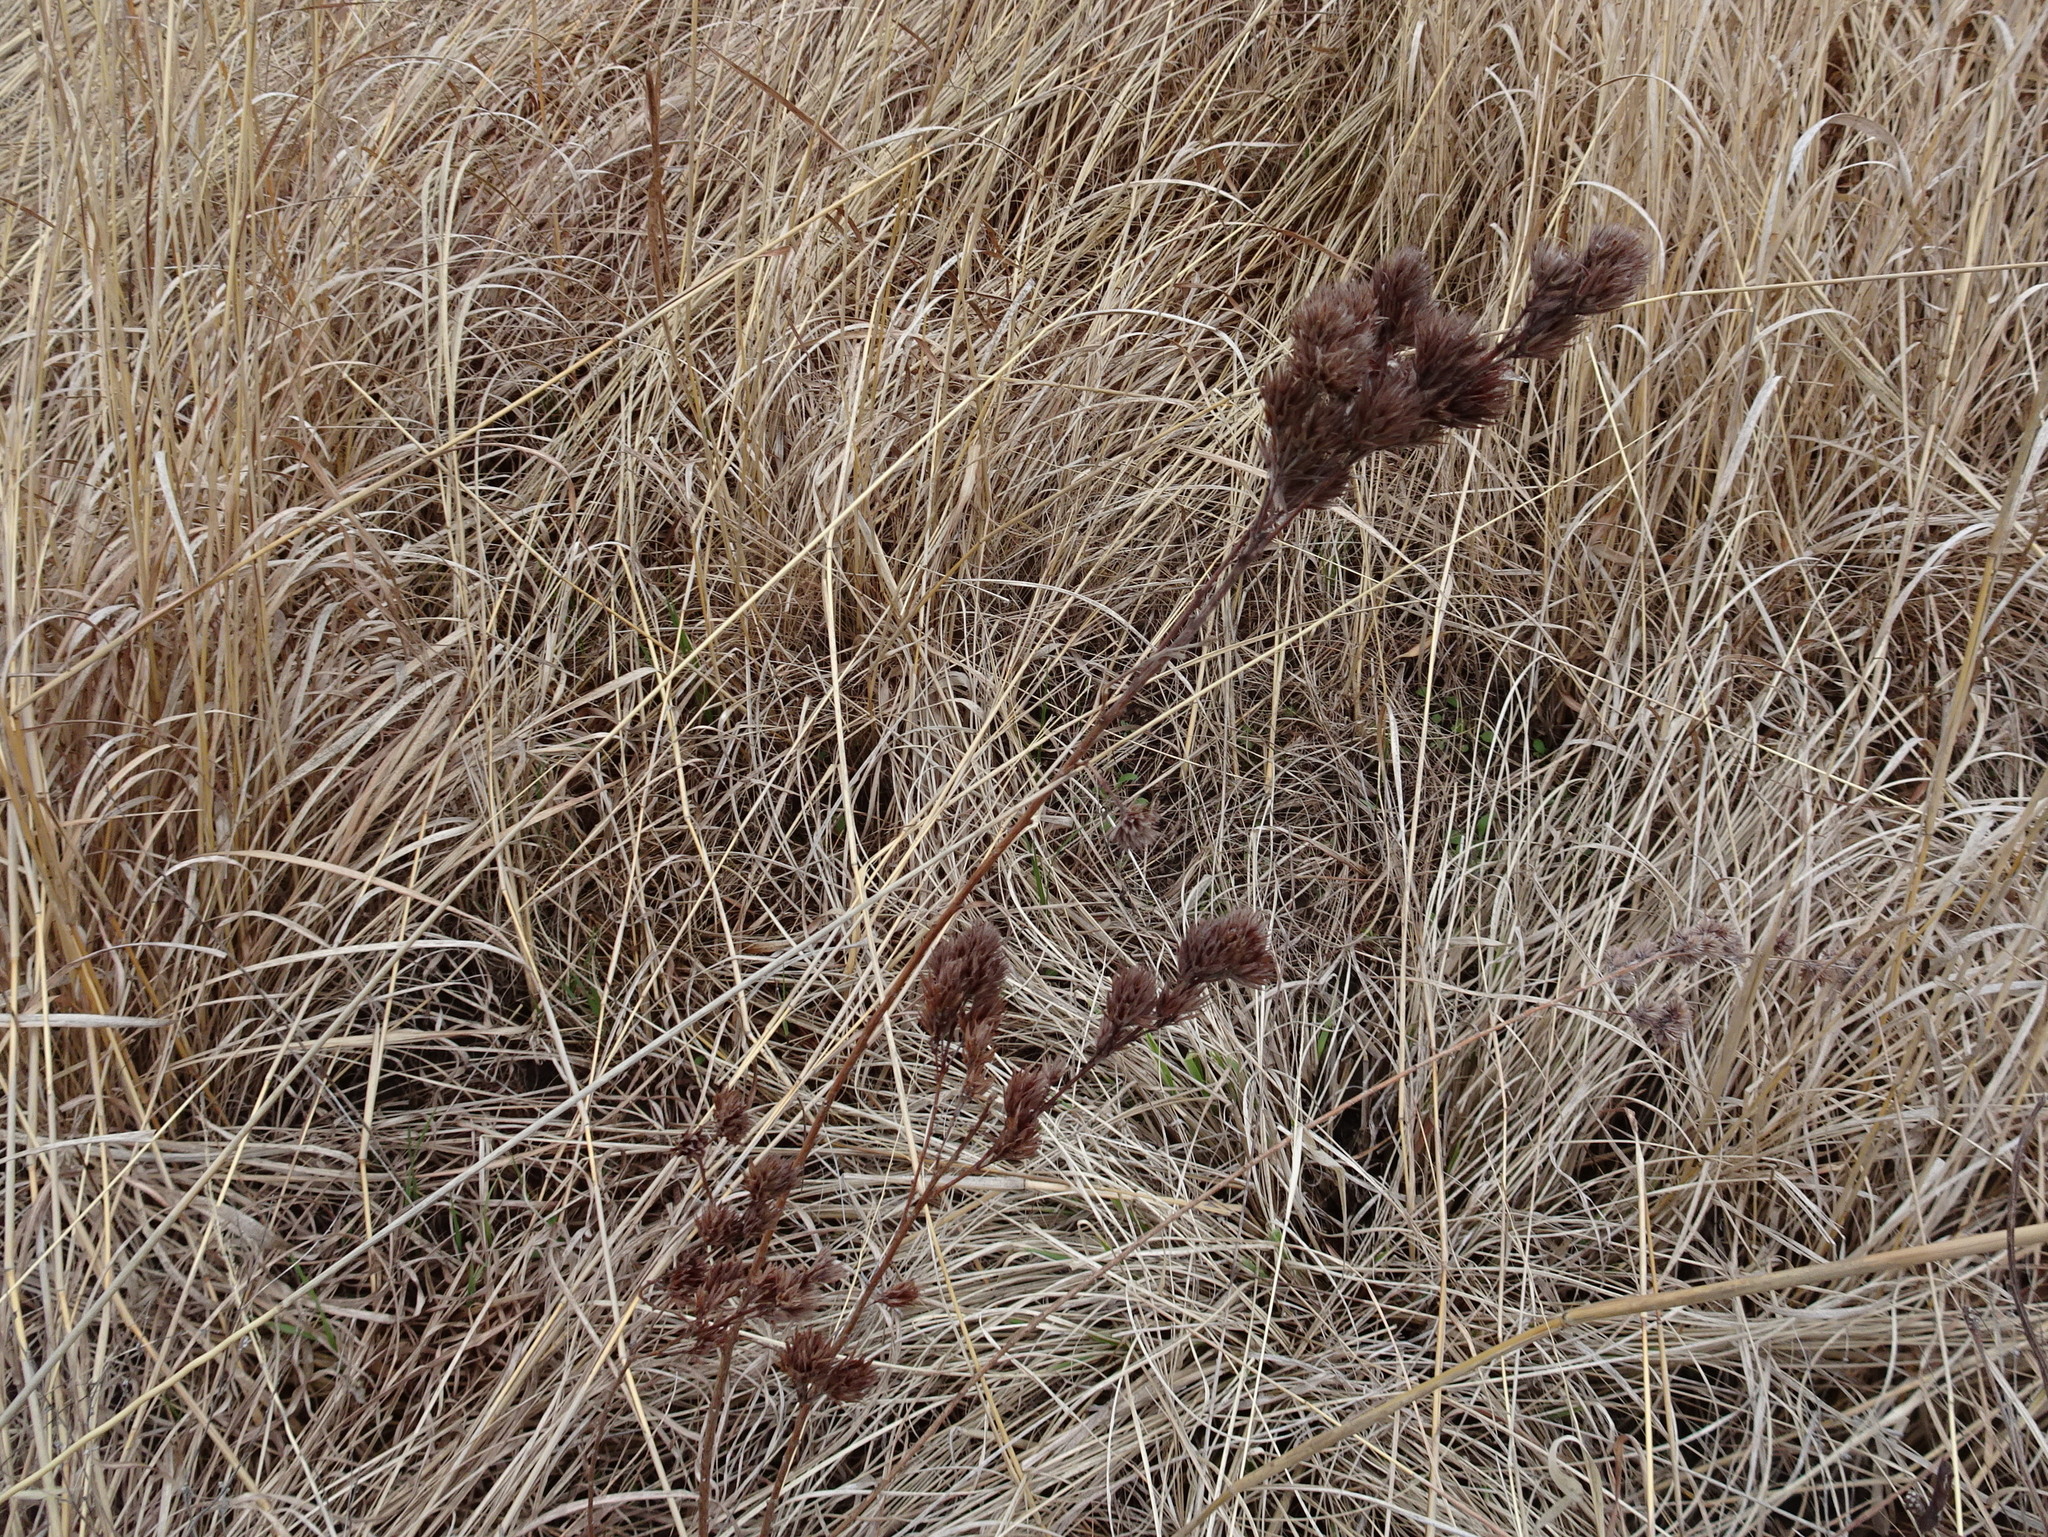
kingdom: Plantae
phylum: Tracheophyta
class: Magnoliopsida
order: Fabales
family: Fabaceae
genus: Lespedeza
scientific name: Lespedeza capitata
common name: Dusty clover
